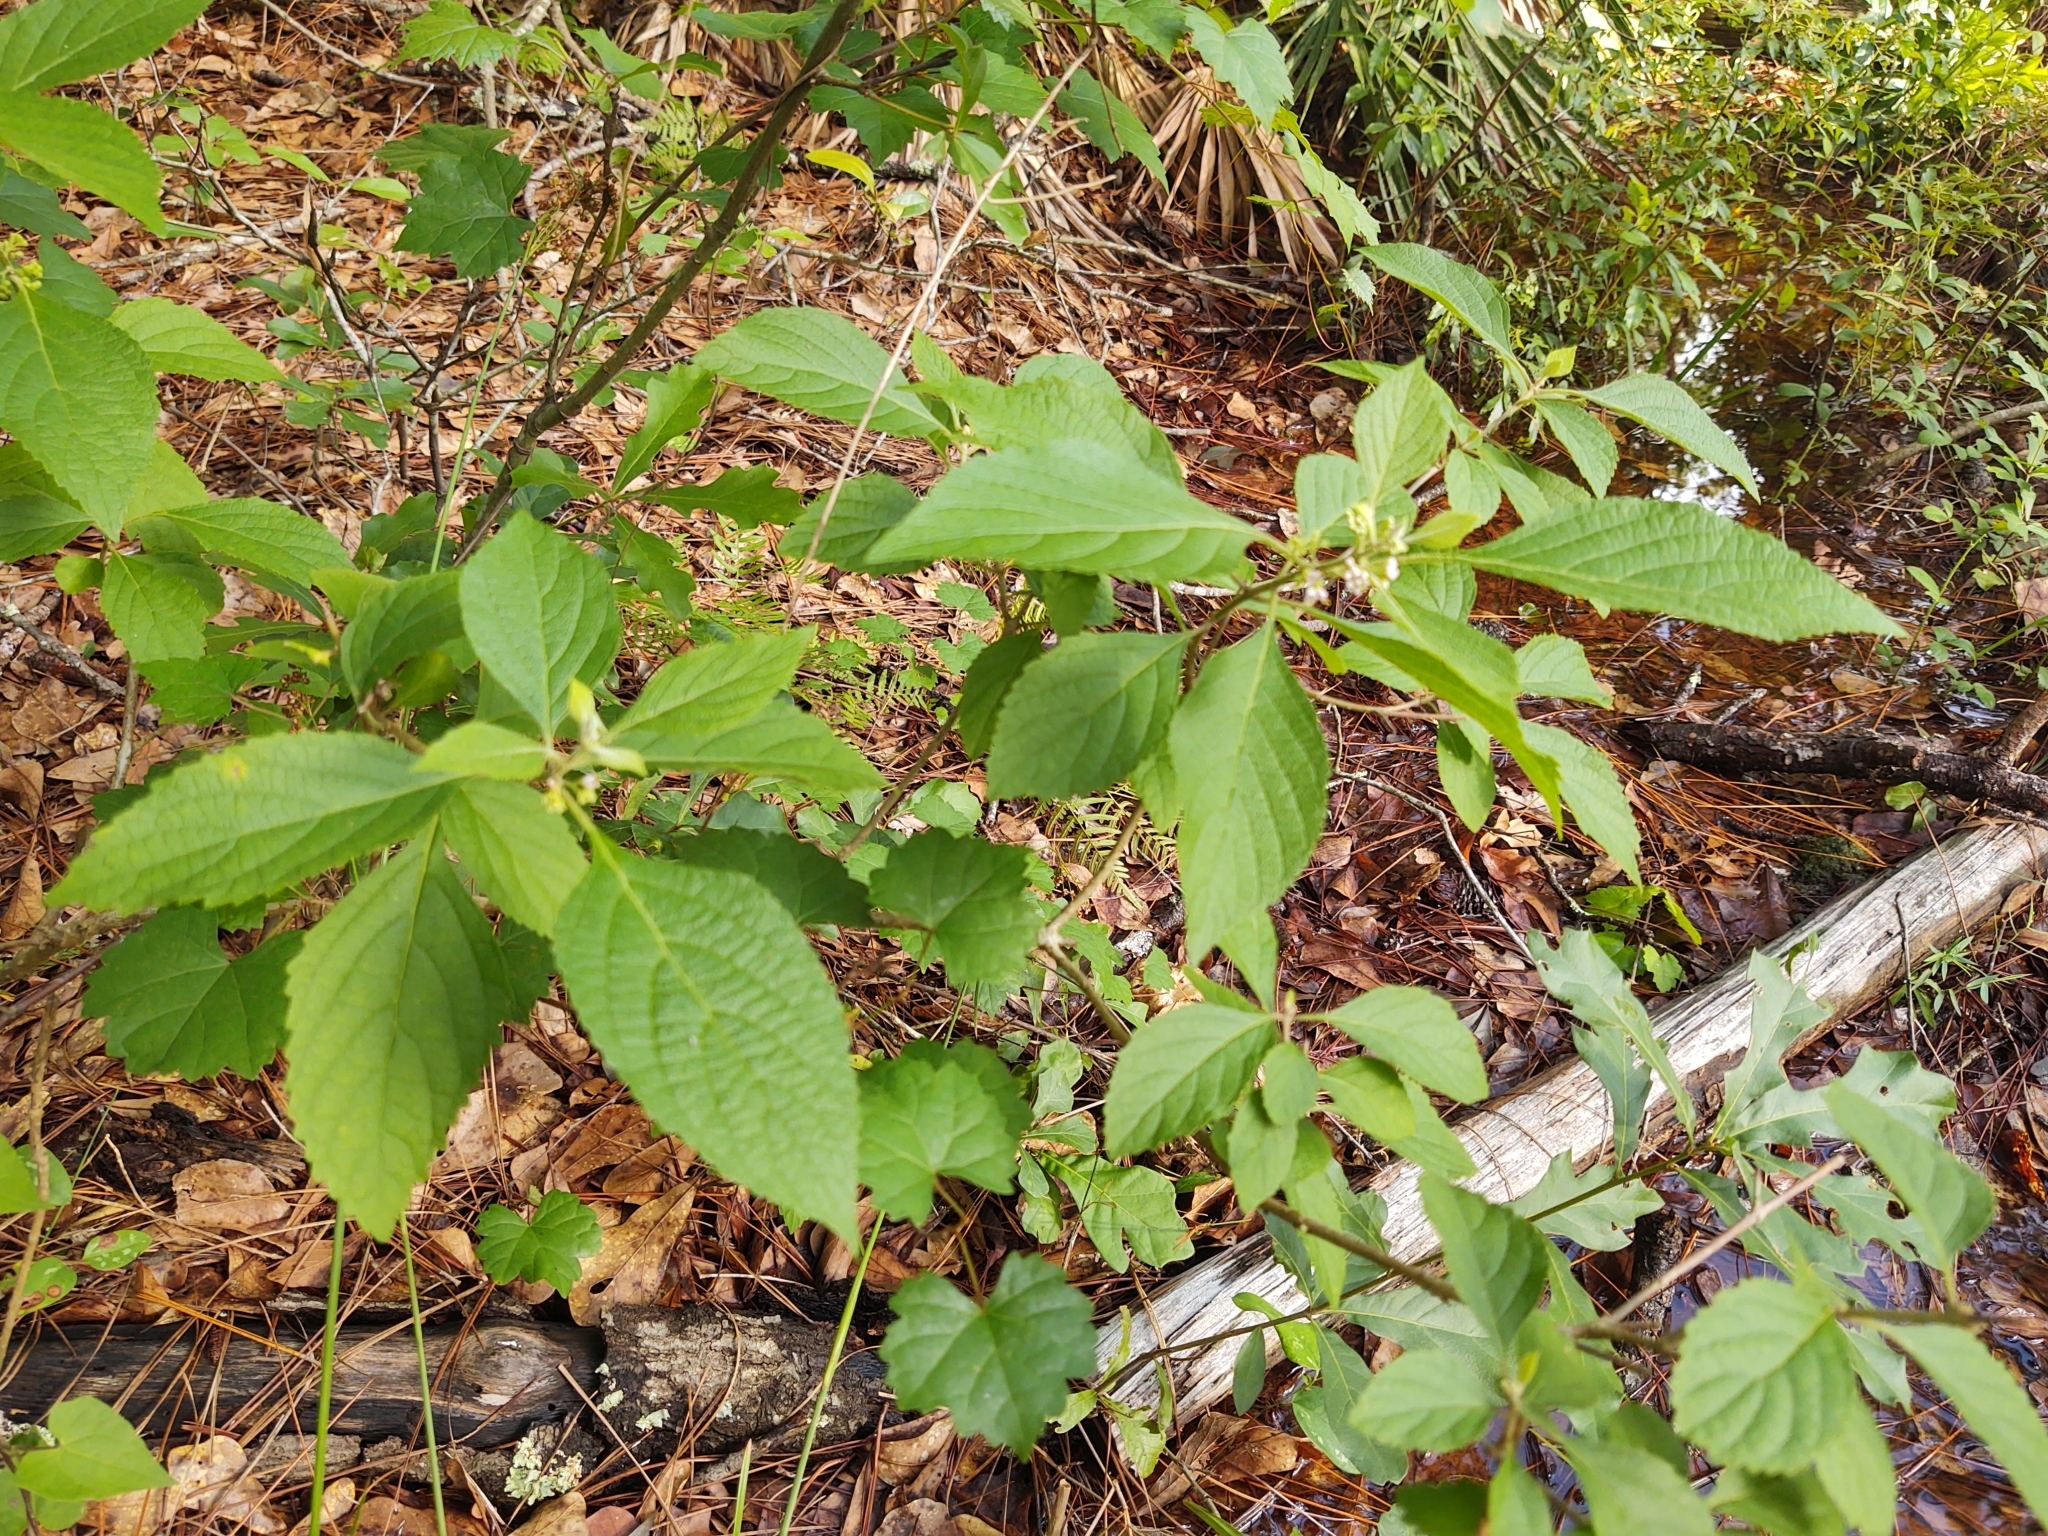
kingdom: Plantae
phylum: Tracheophyta
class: Magnoliopsida
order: Lamiales
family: Lamiaceae
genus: Callicarpa
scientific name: Callicarpa americana
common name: American beautyberry
